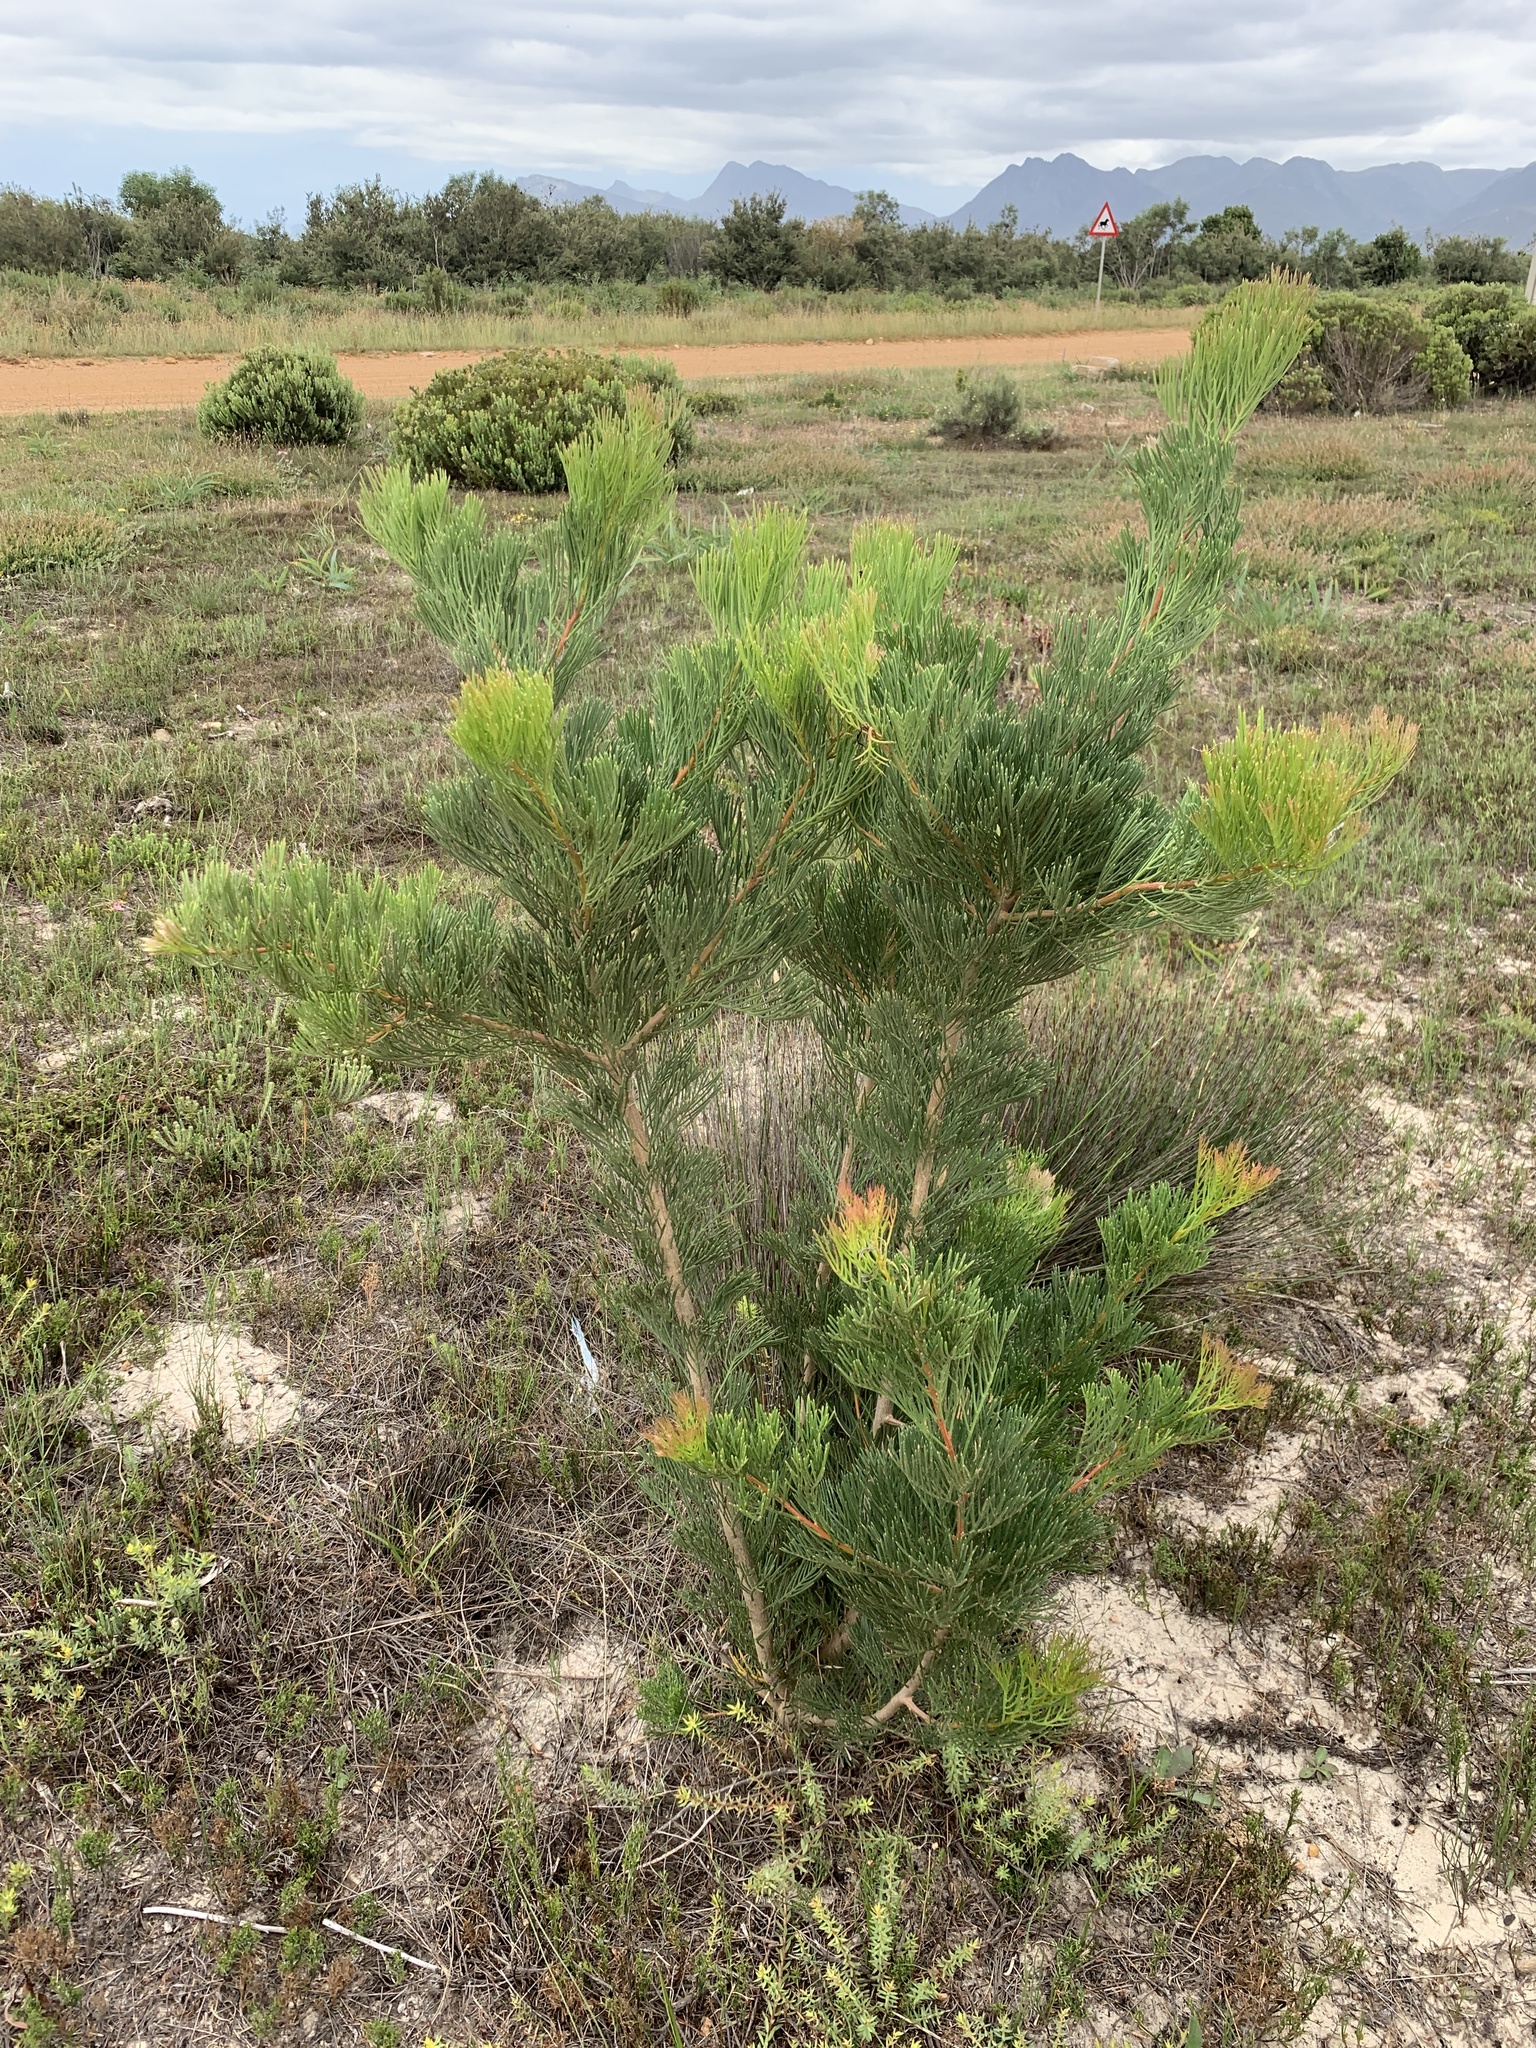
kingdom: Plantae
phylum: Tracheophyta
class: Magnoliopsida
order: Proteales
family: Proteaceae
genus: Hakea
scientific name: Hakea drupacea
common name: Sweet hakea
